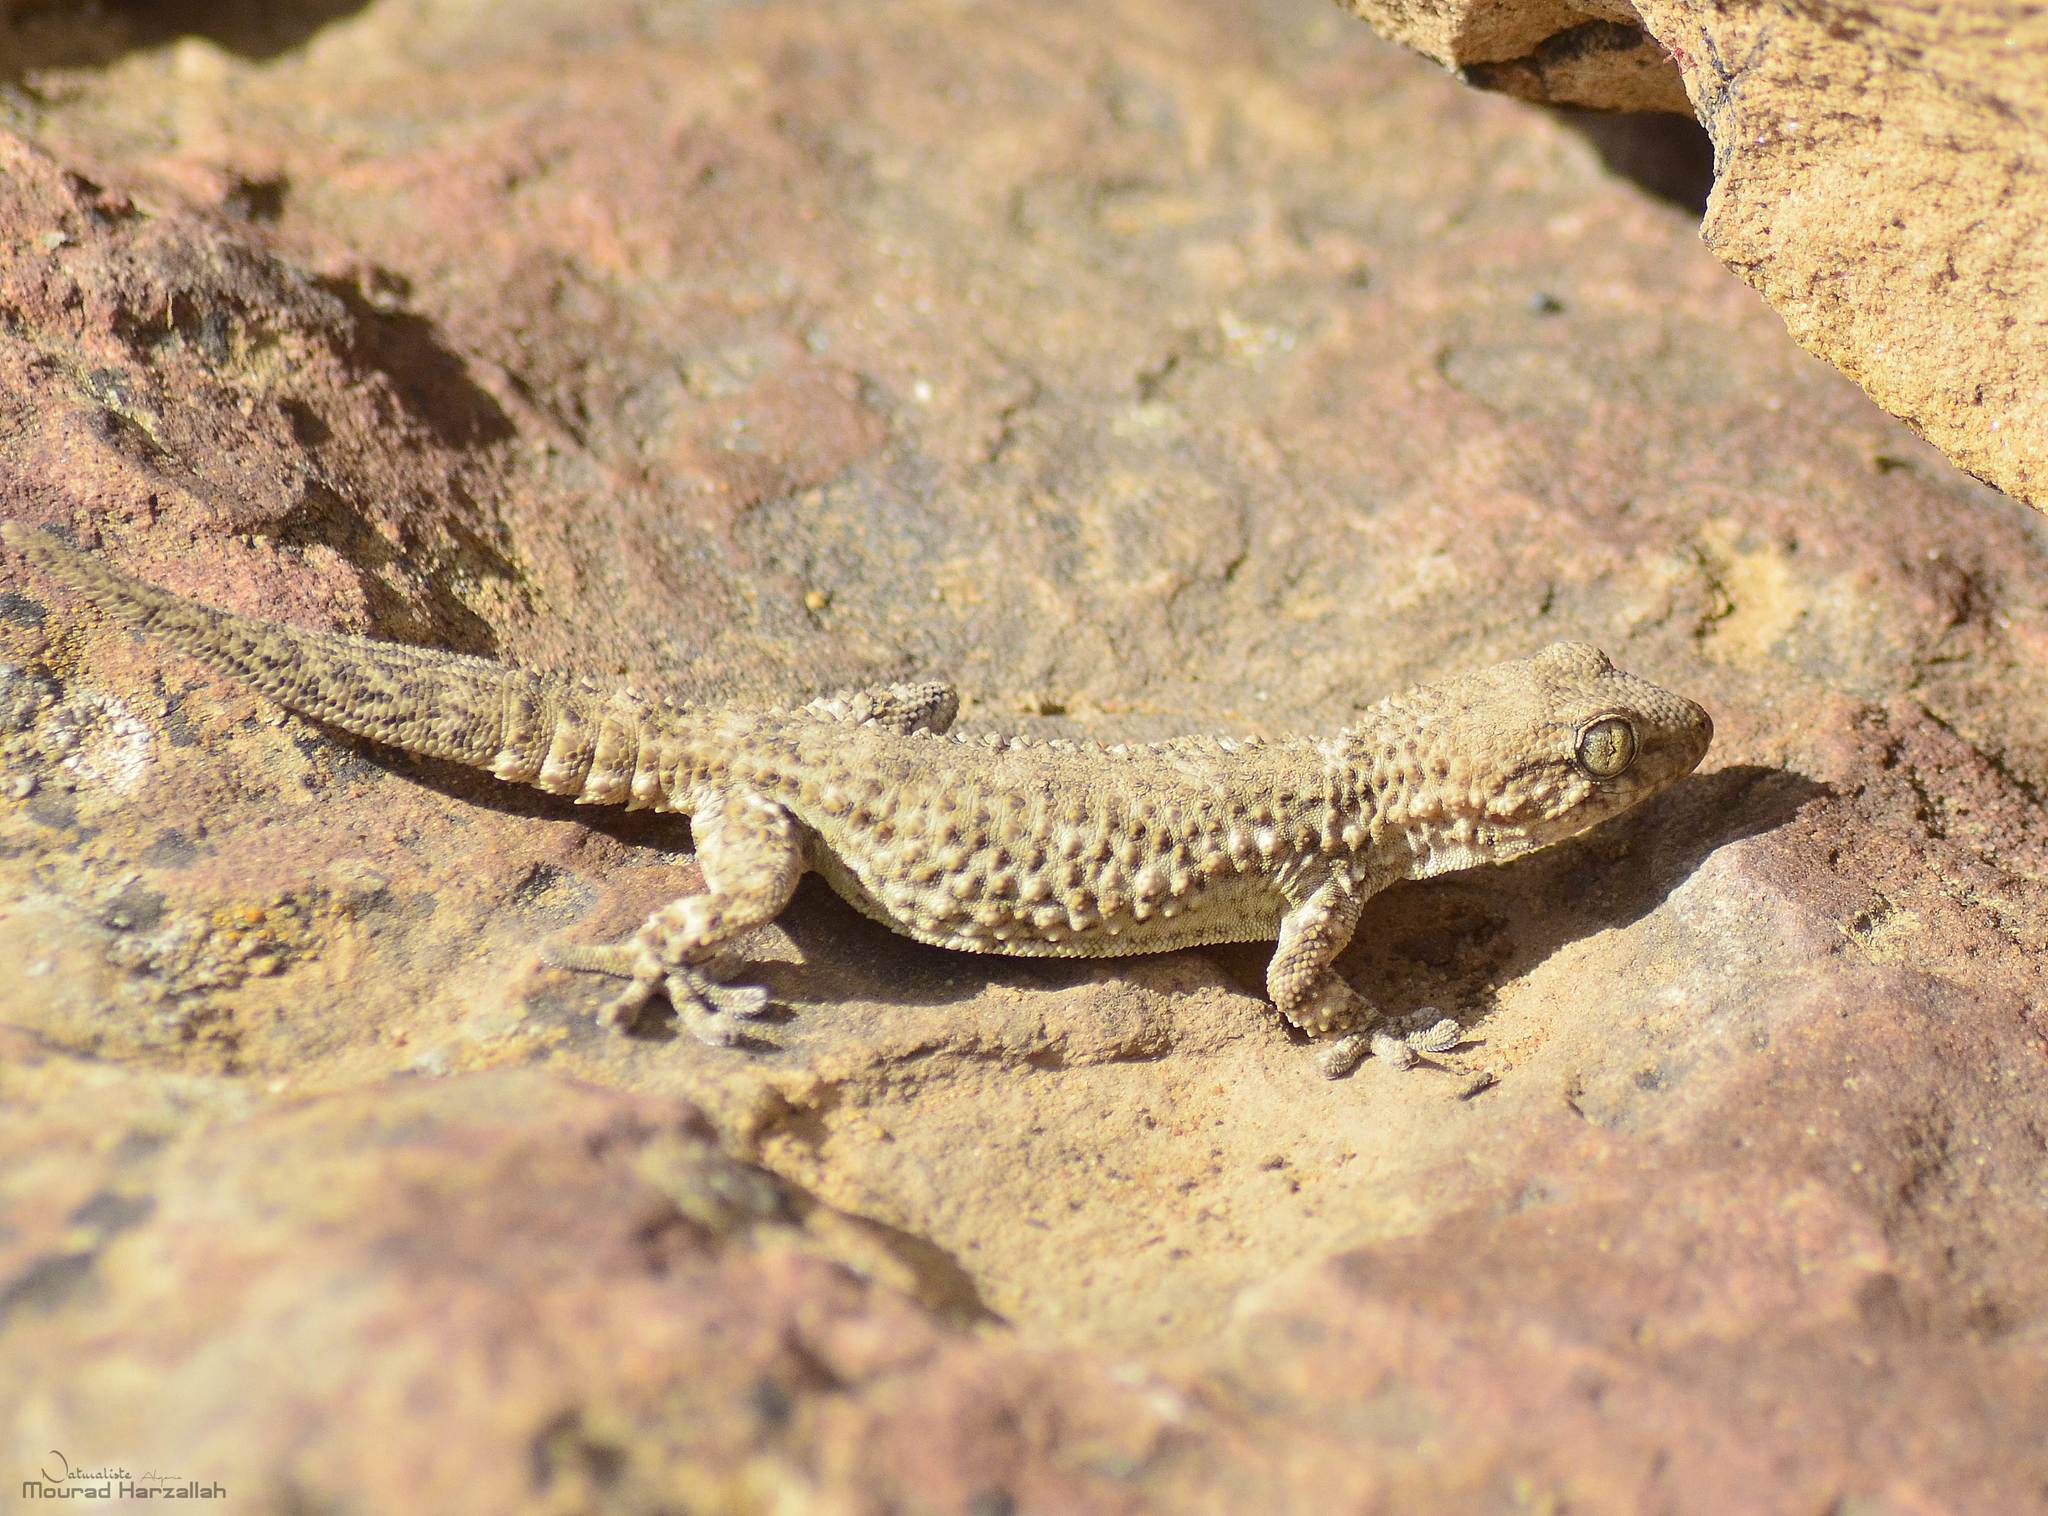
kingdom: Animalia
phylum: Chordata
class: Squamata
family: Phyllodactylidae
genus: Tarentola
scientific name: Tarentola mauritanica
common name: Moorish gecko
